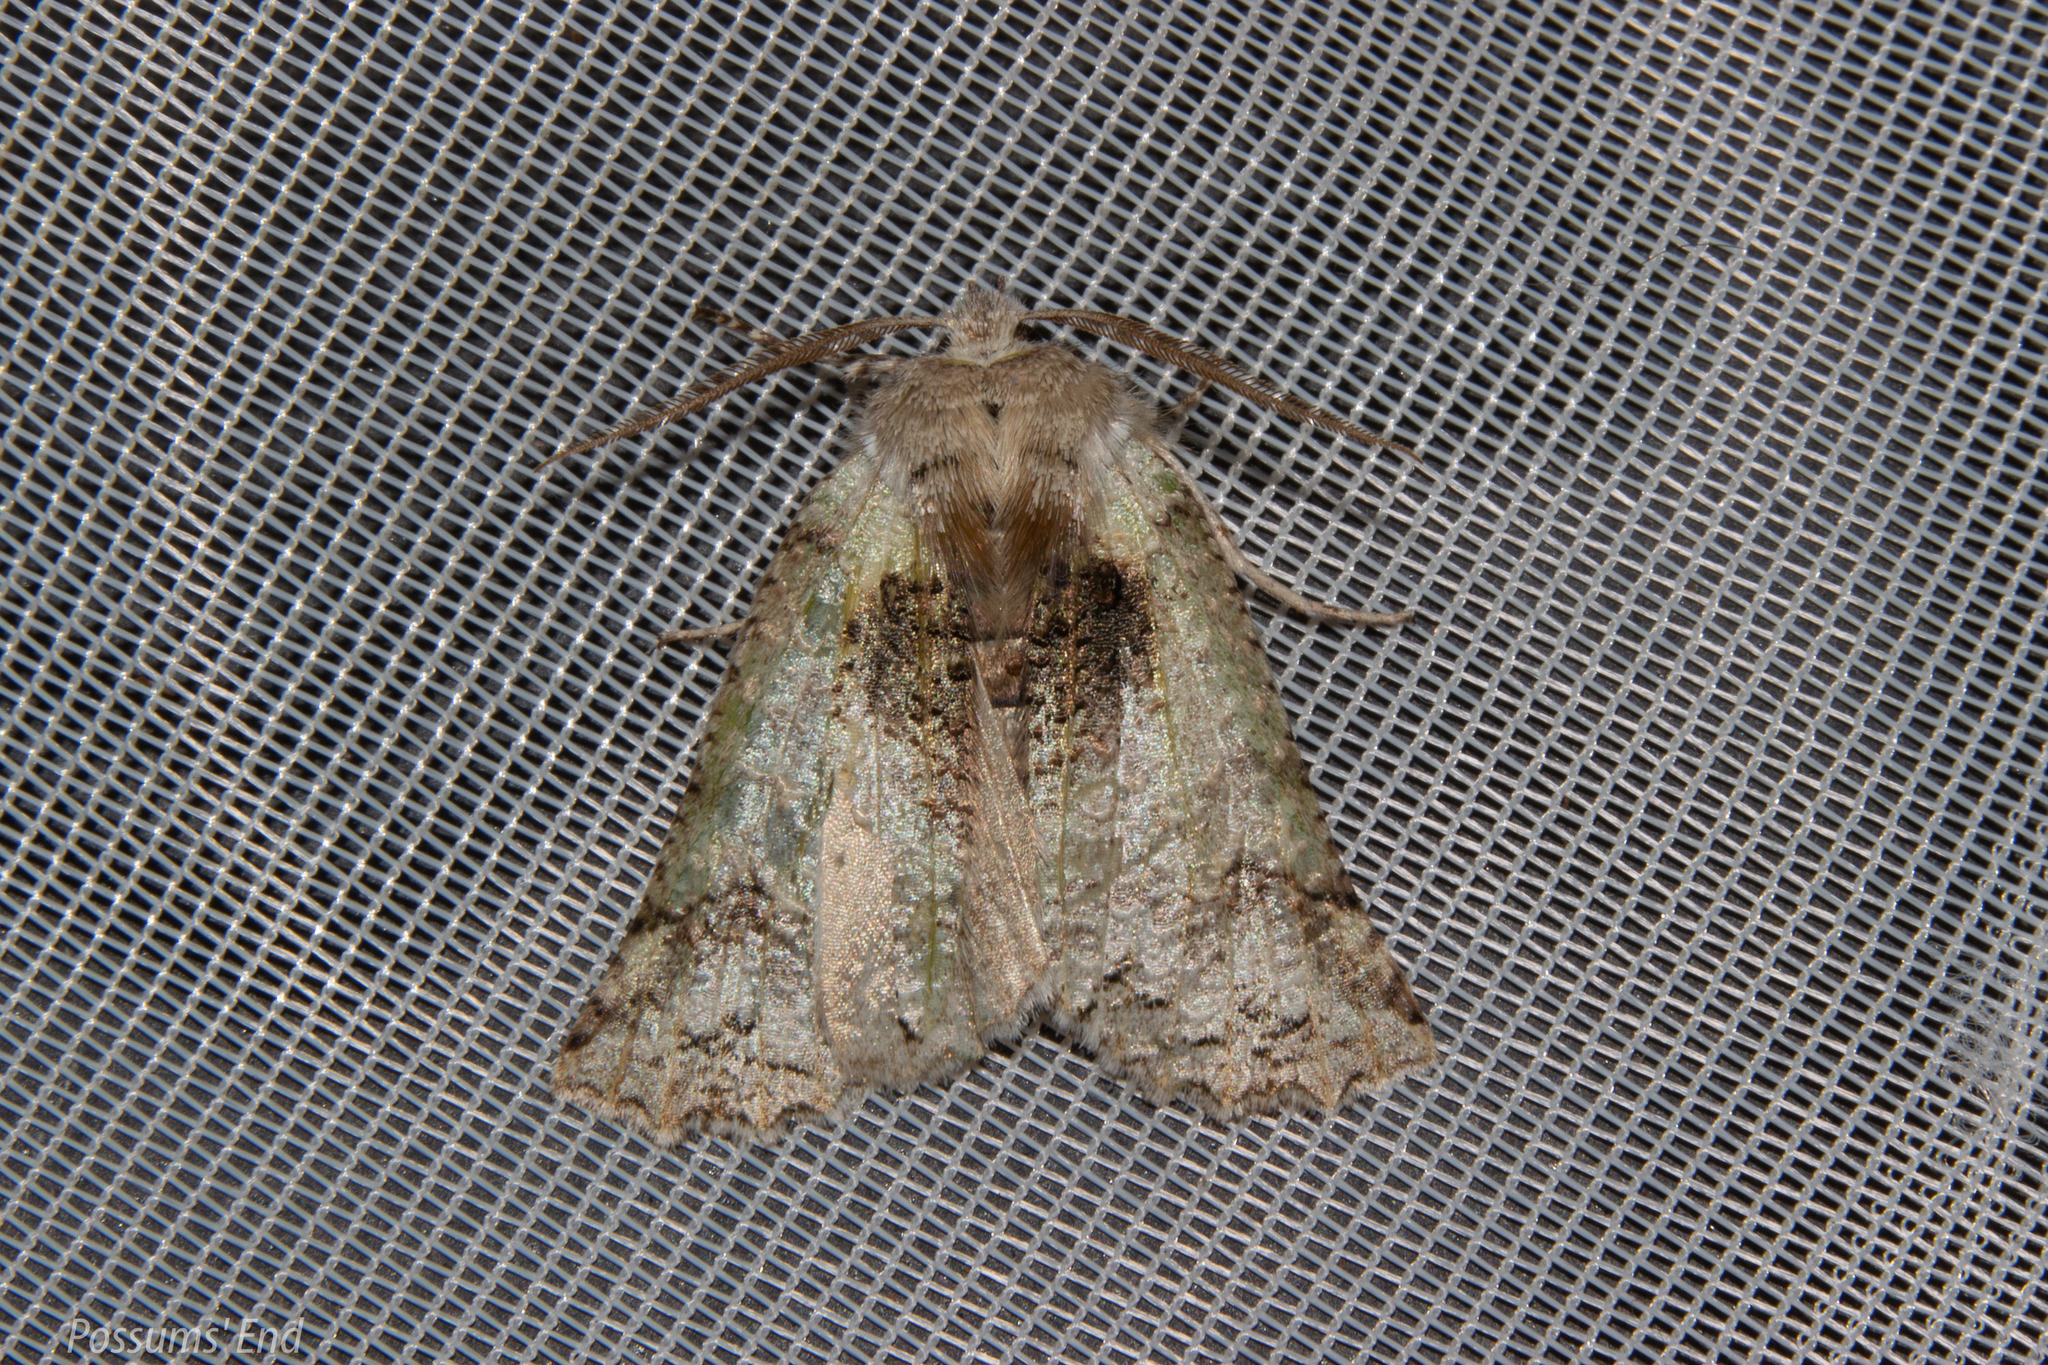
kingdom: Animalia
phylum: Arthropoda
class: Insecta
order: Lepidoptera
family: Geometridae
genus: Declana
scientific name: Declana floccosa
